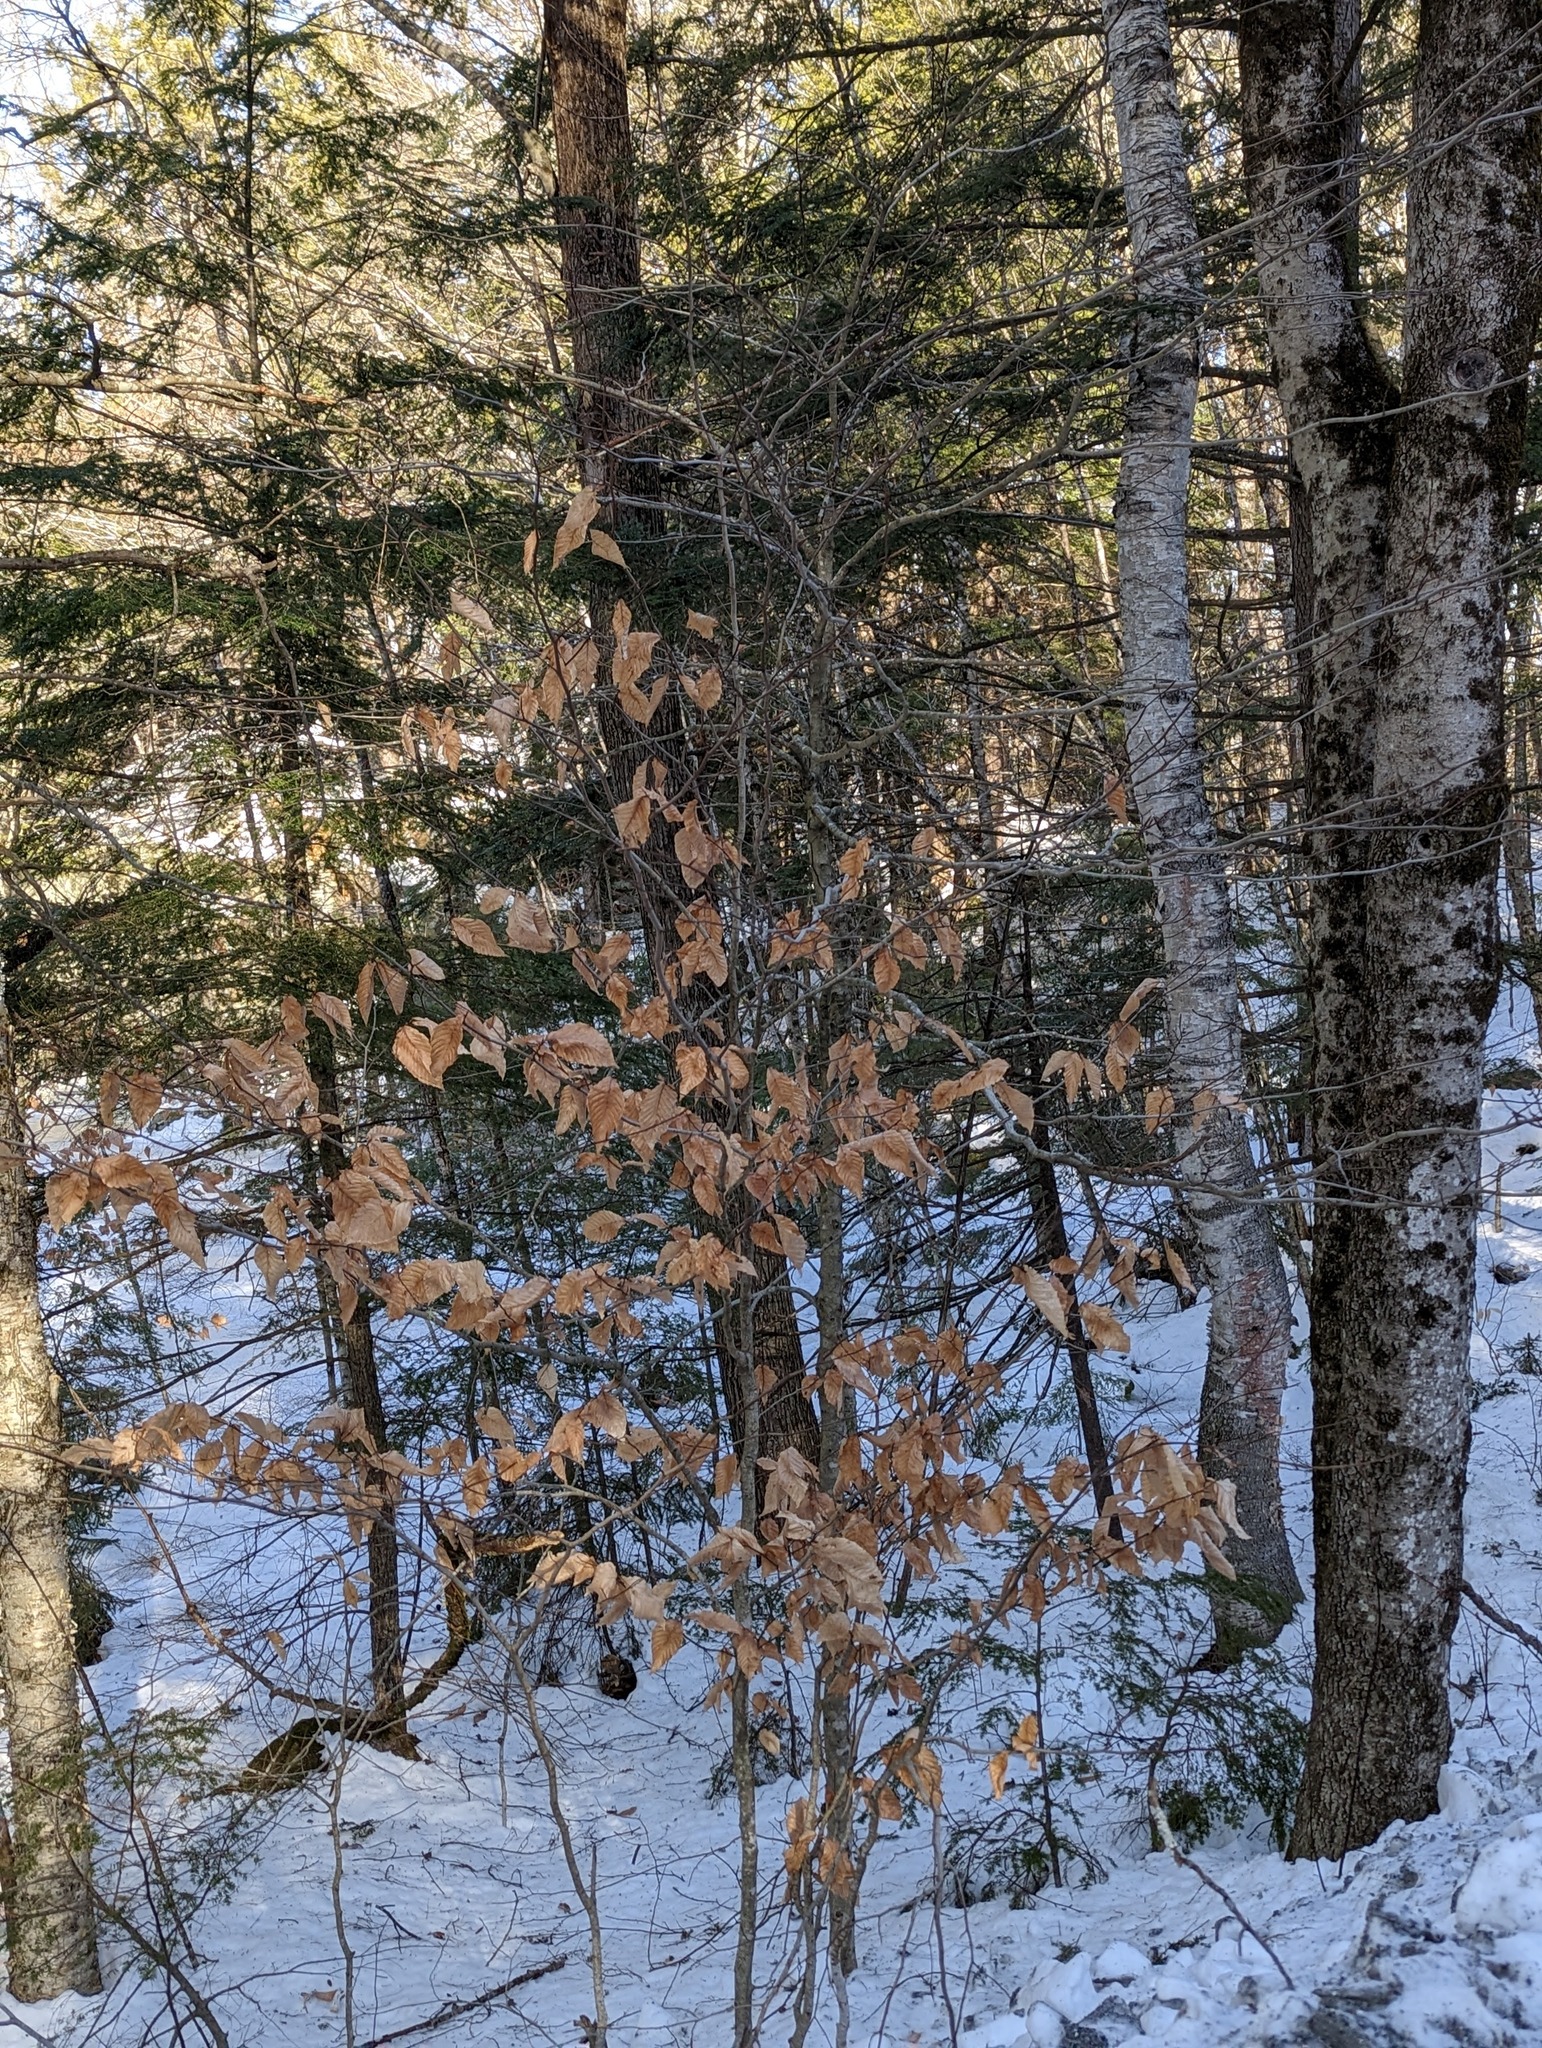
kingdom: Plantae
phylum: Tracheophyta
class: Magnoliopsida
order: Fagales
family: Fagaceae
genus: Fagus
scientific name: Fagus grandifolia
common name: American beech
